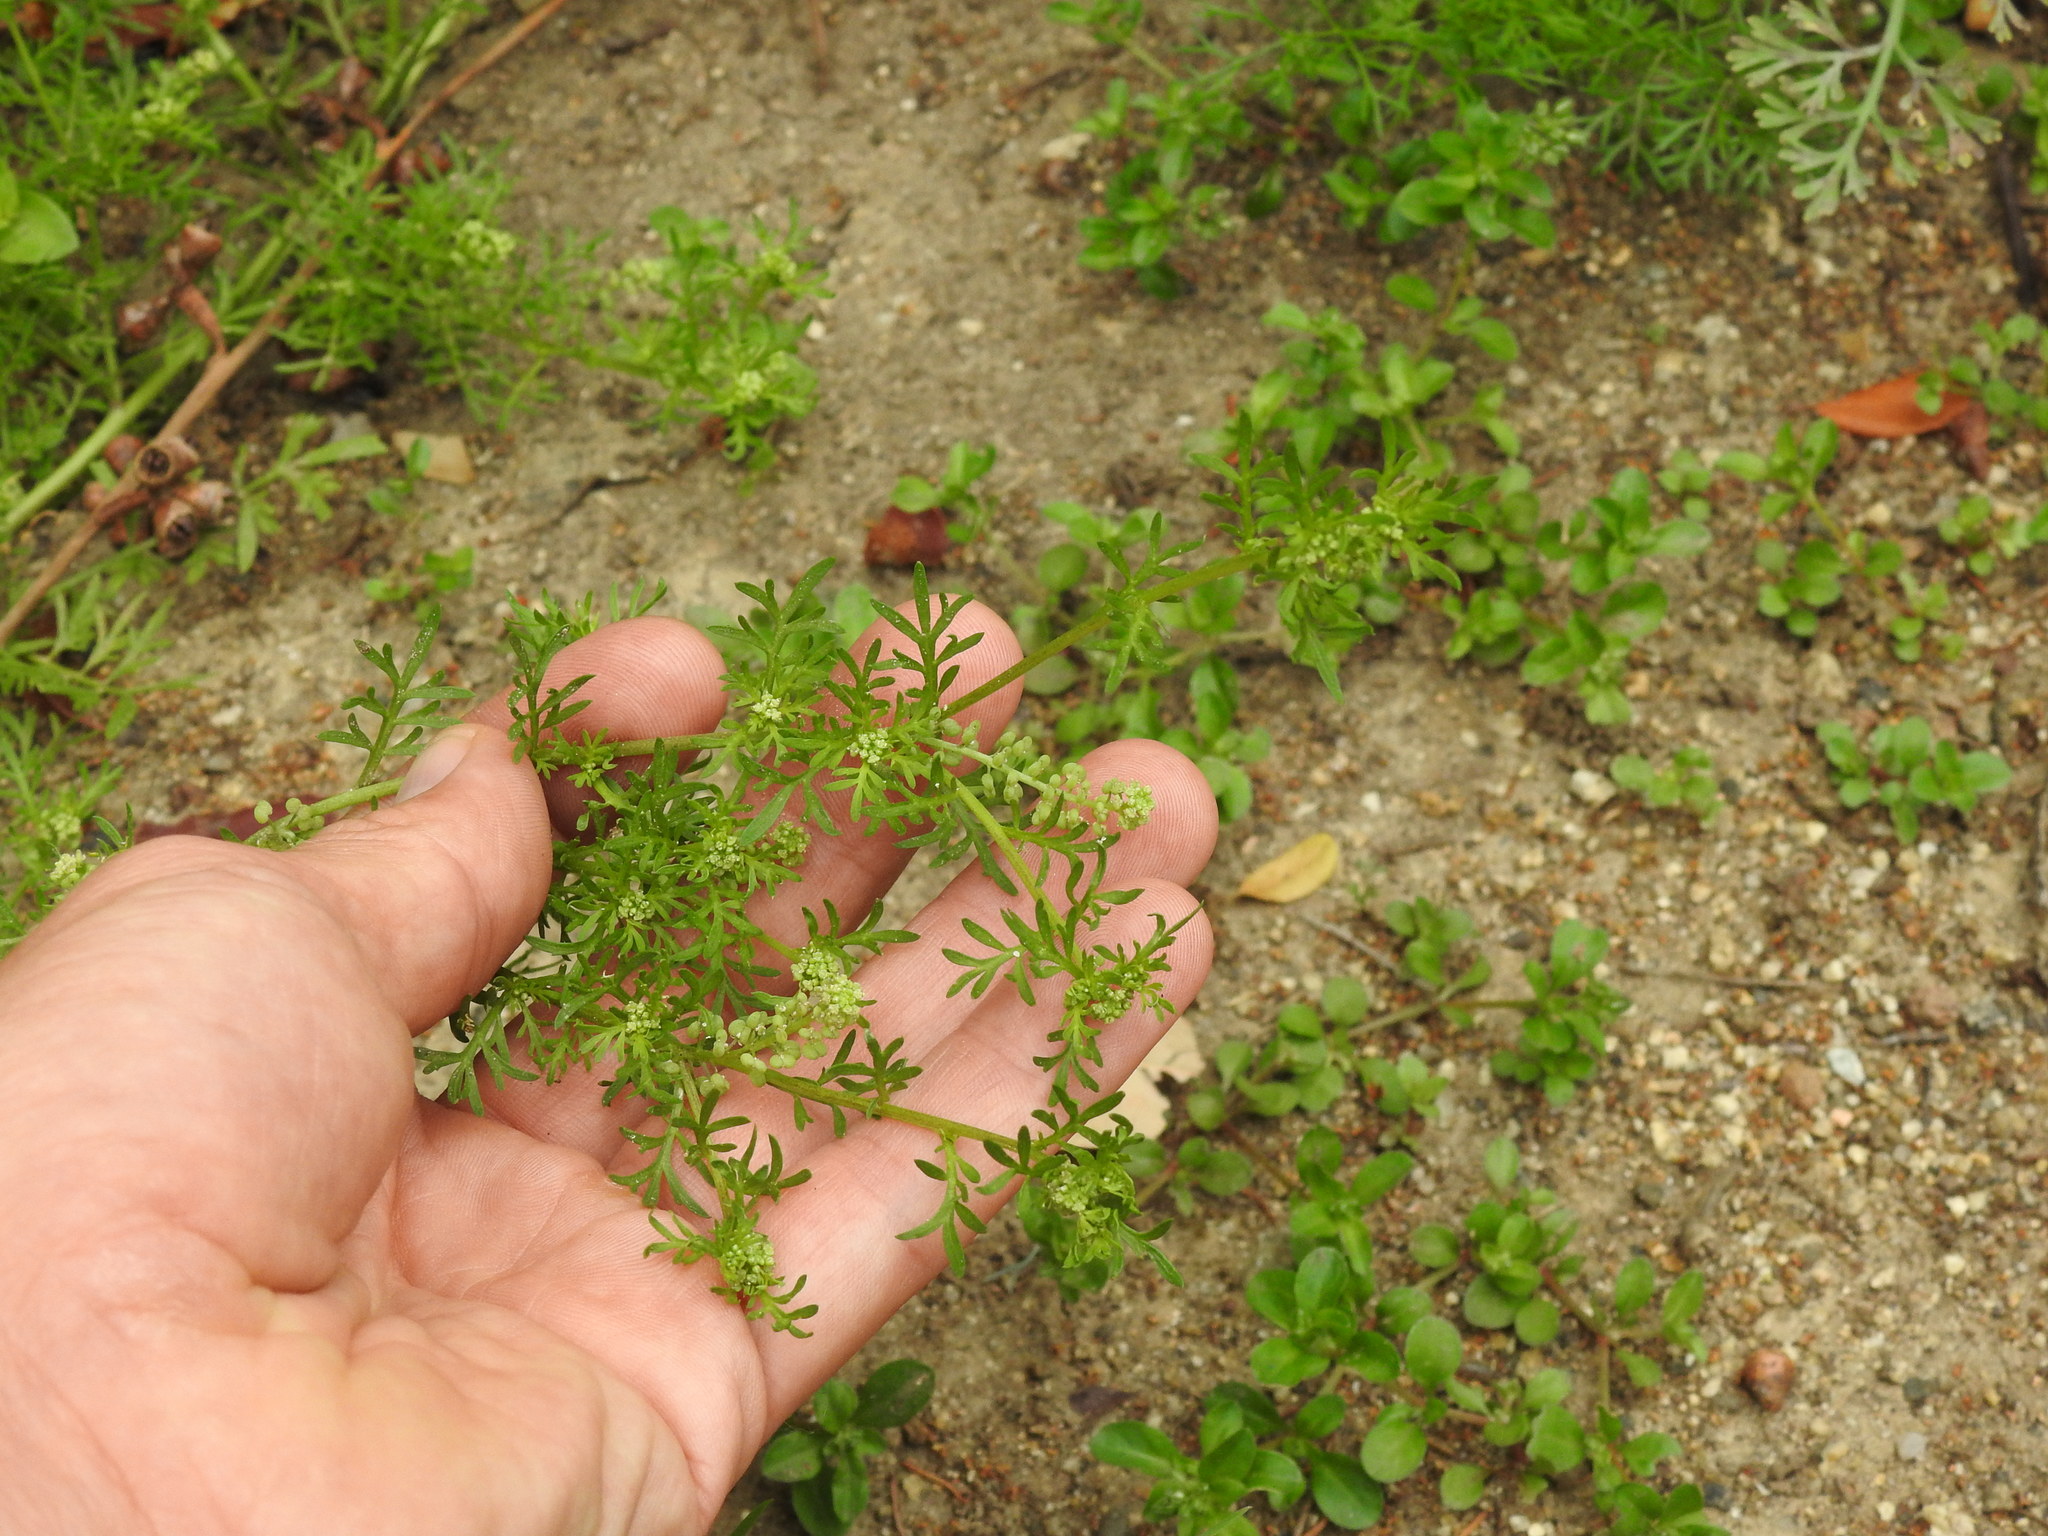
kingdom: Plantae
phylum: Tracheophyta
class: Magnoliopsida
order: Brassicales
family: Brassicaceae
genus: Lepidium
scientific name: Lepidium didymum
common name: Lesser swinecress
